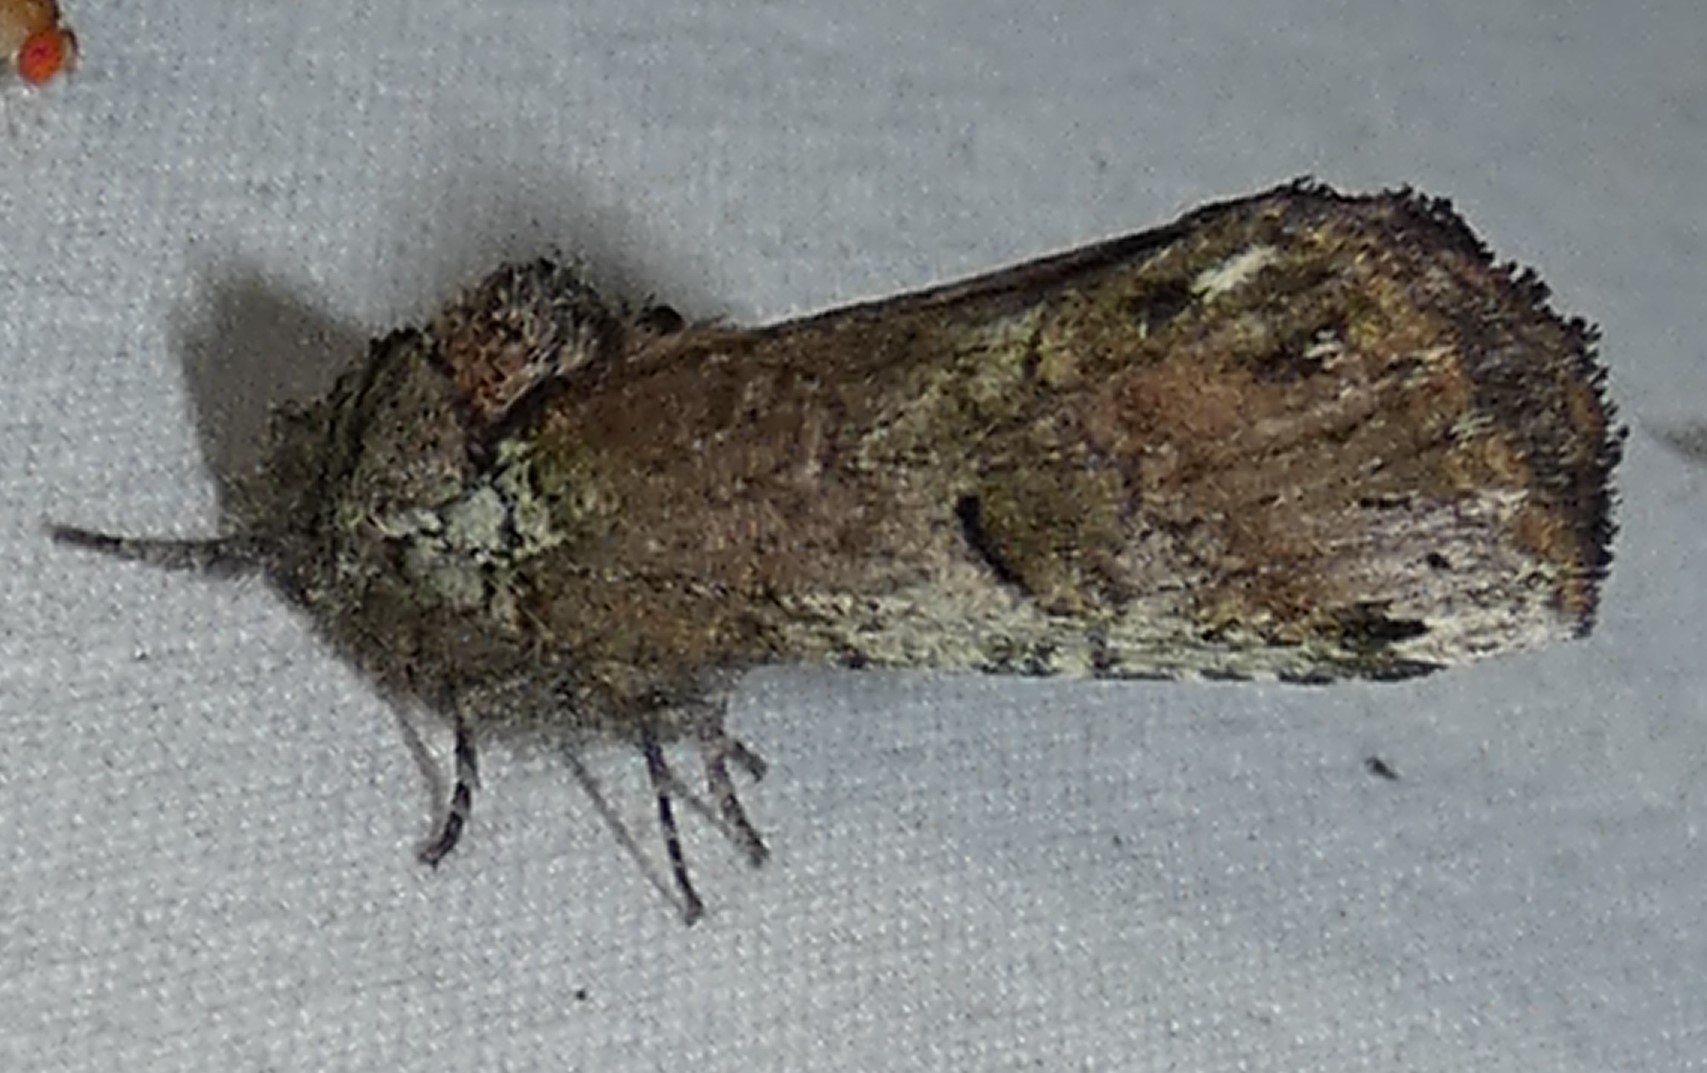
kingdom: Animalia
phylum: Arthropoda
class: Insecta
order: Lepidoptera
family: Notodontidae
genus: Schizura
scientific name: Schizura
